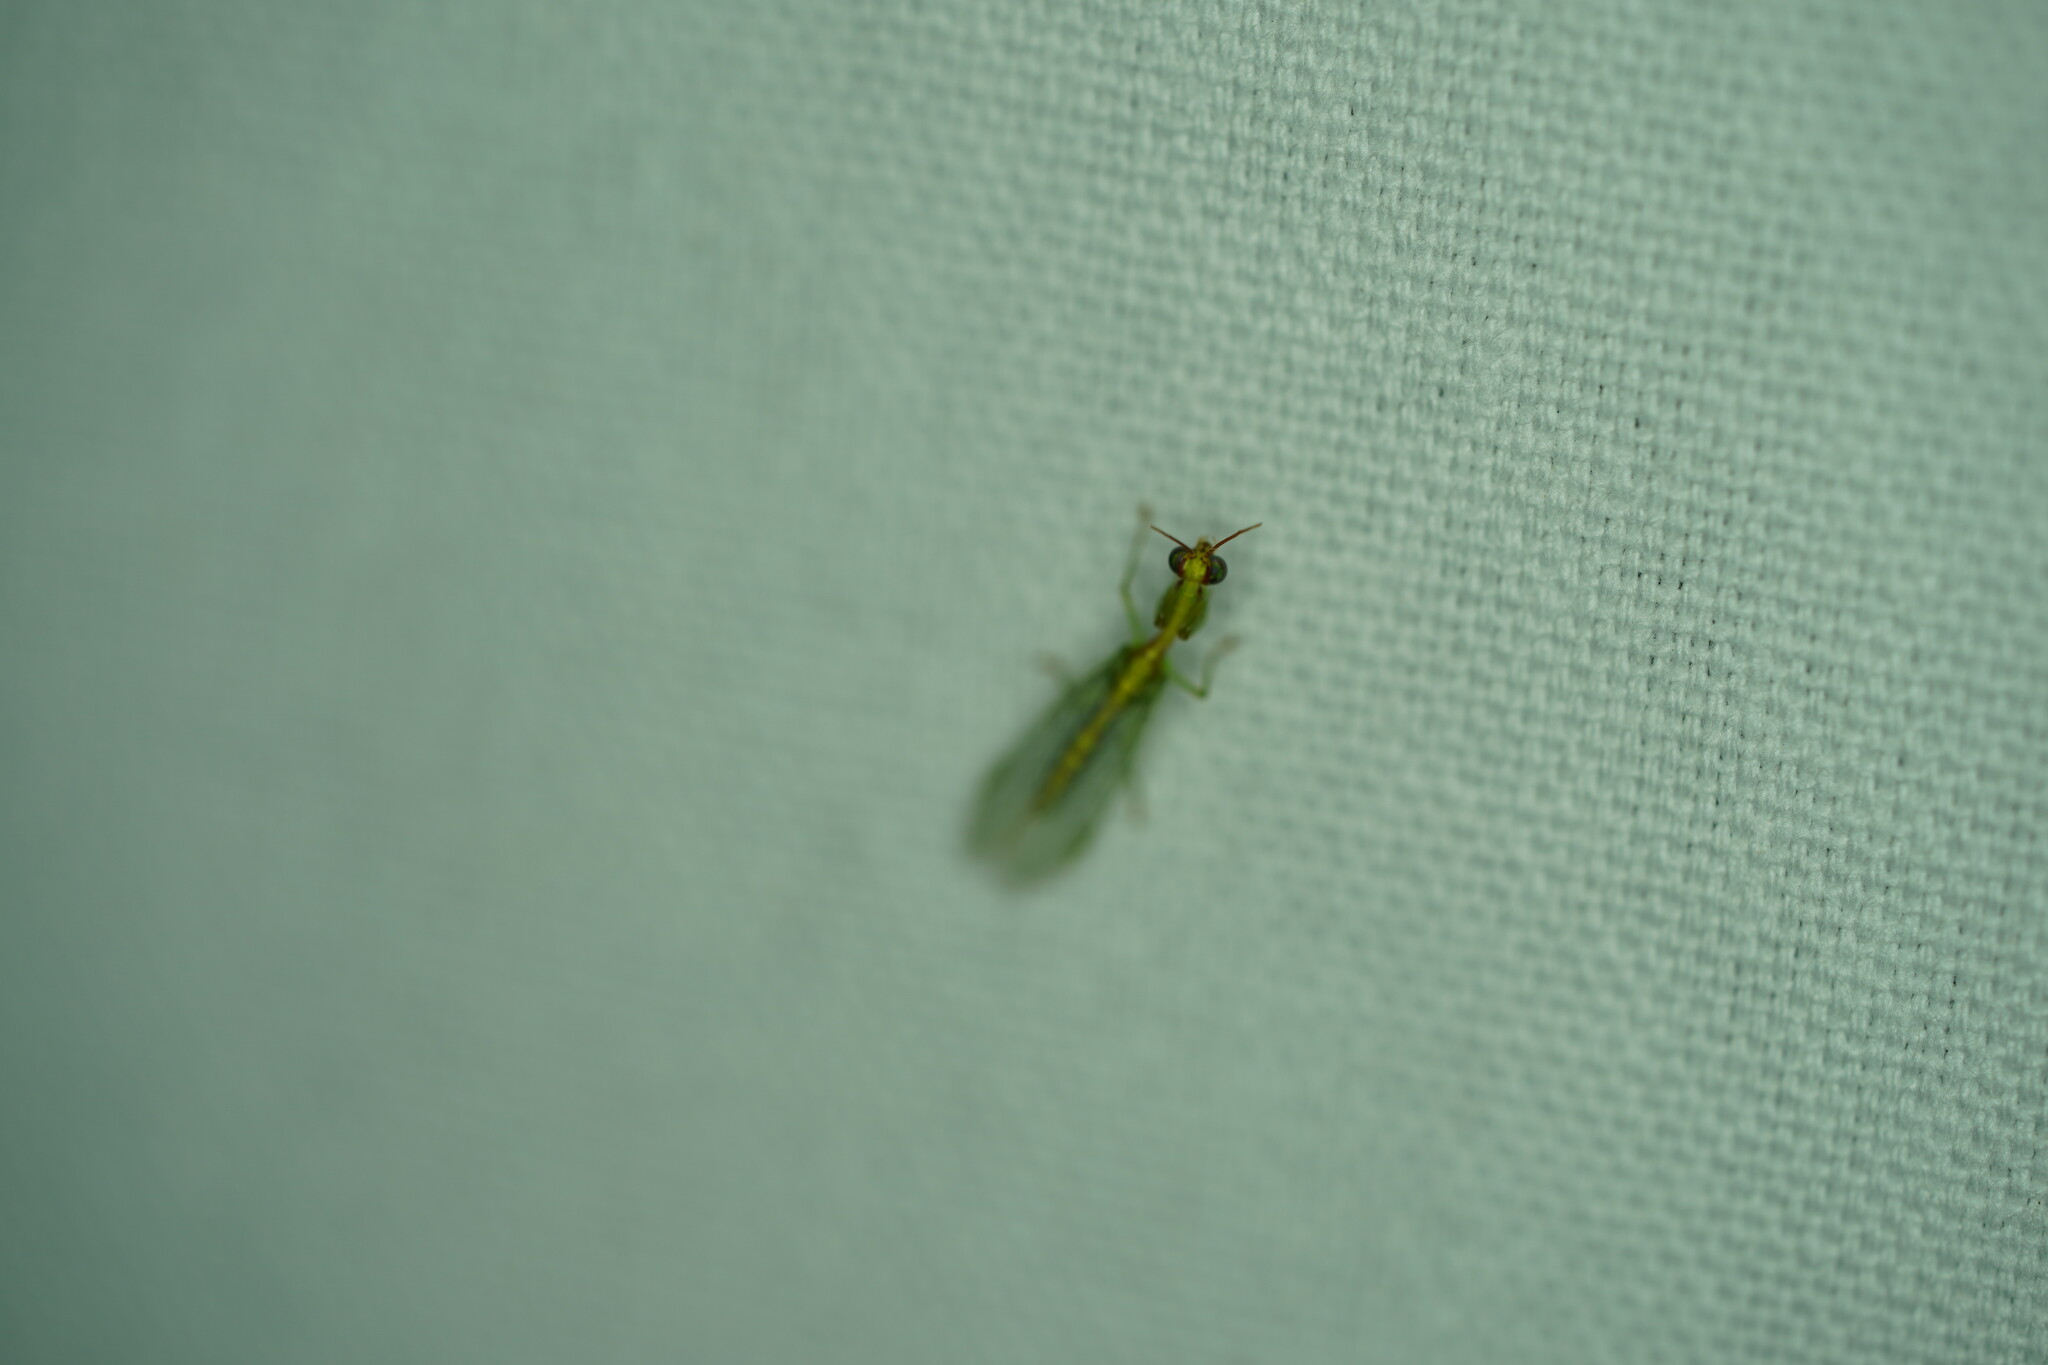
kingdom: Animalia
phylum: Arthropoda
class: Insecta
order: Neuroptera
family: Mantispidae
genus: Zeugomantispa
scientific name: Zeugomantispa minuta
